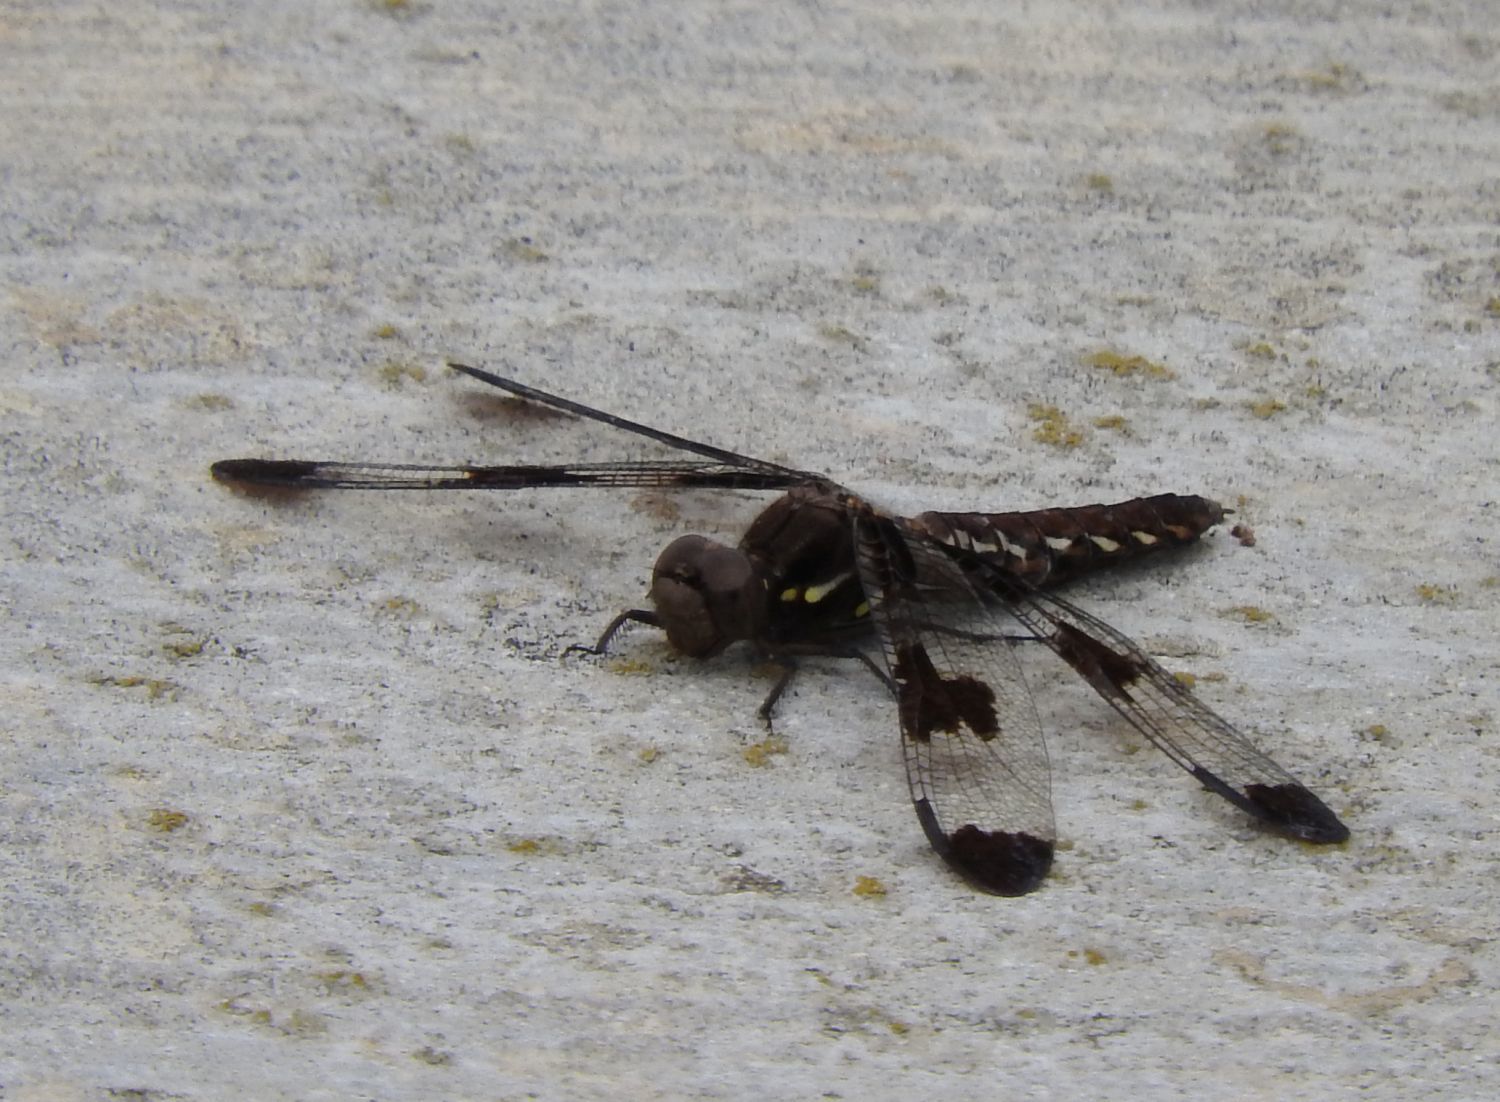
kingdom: Animalia
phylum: Arthropoda
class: Insecta
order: Odonata
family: Libellulidae
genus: Plathemis
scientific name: Plathemis lydia
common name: Common whitetail
